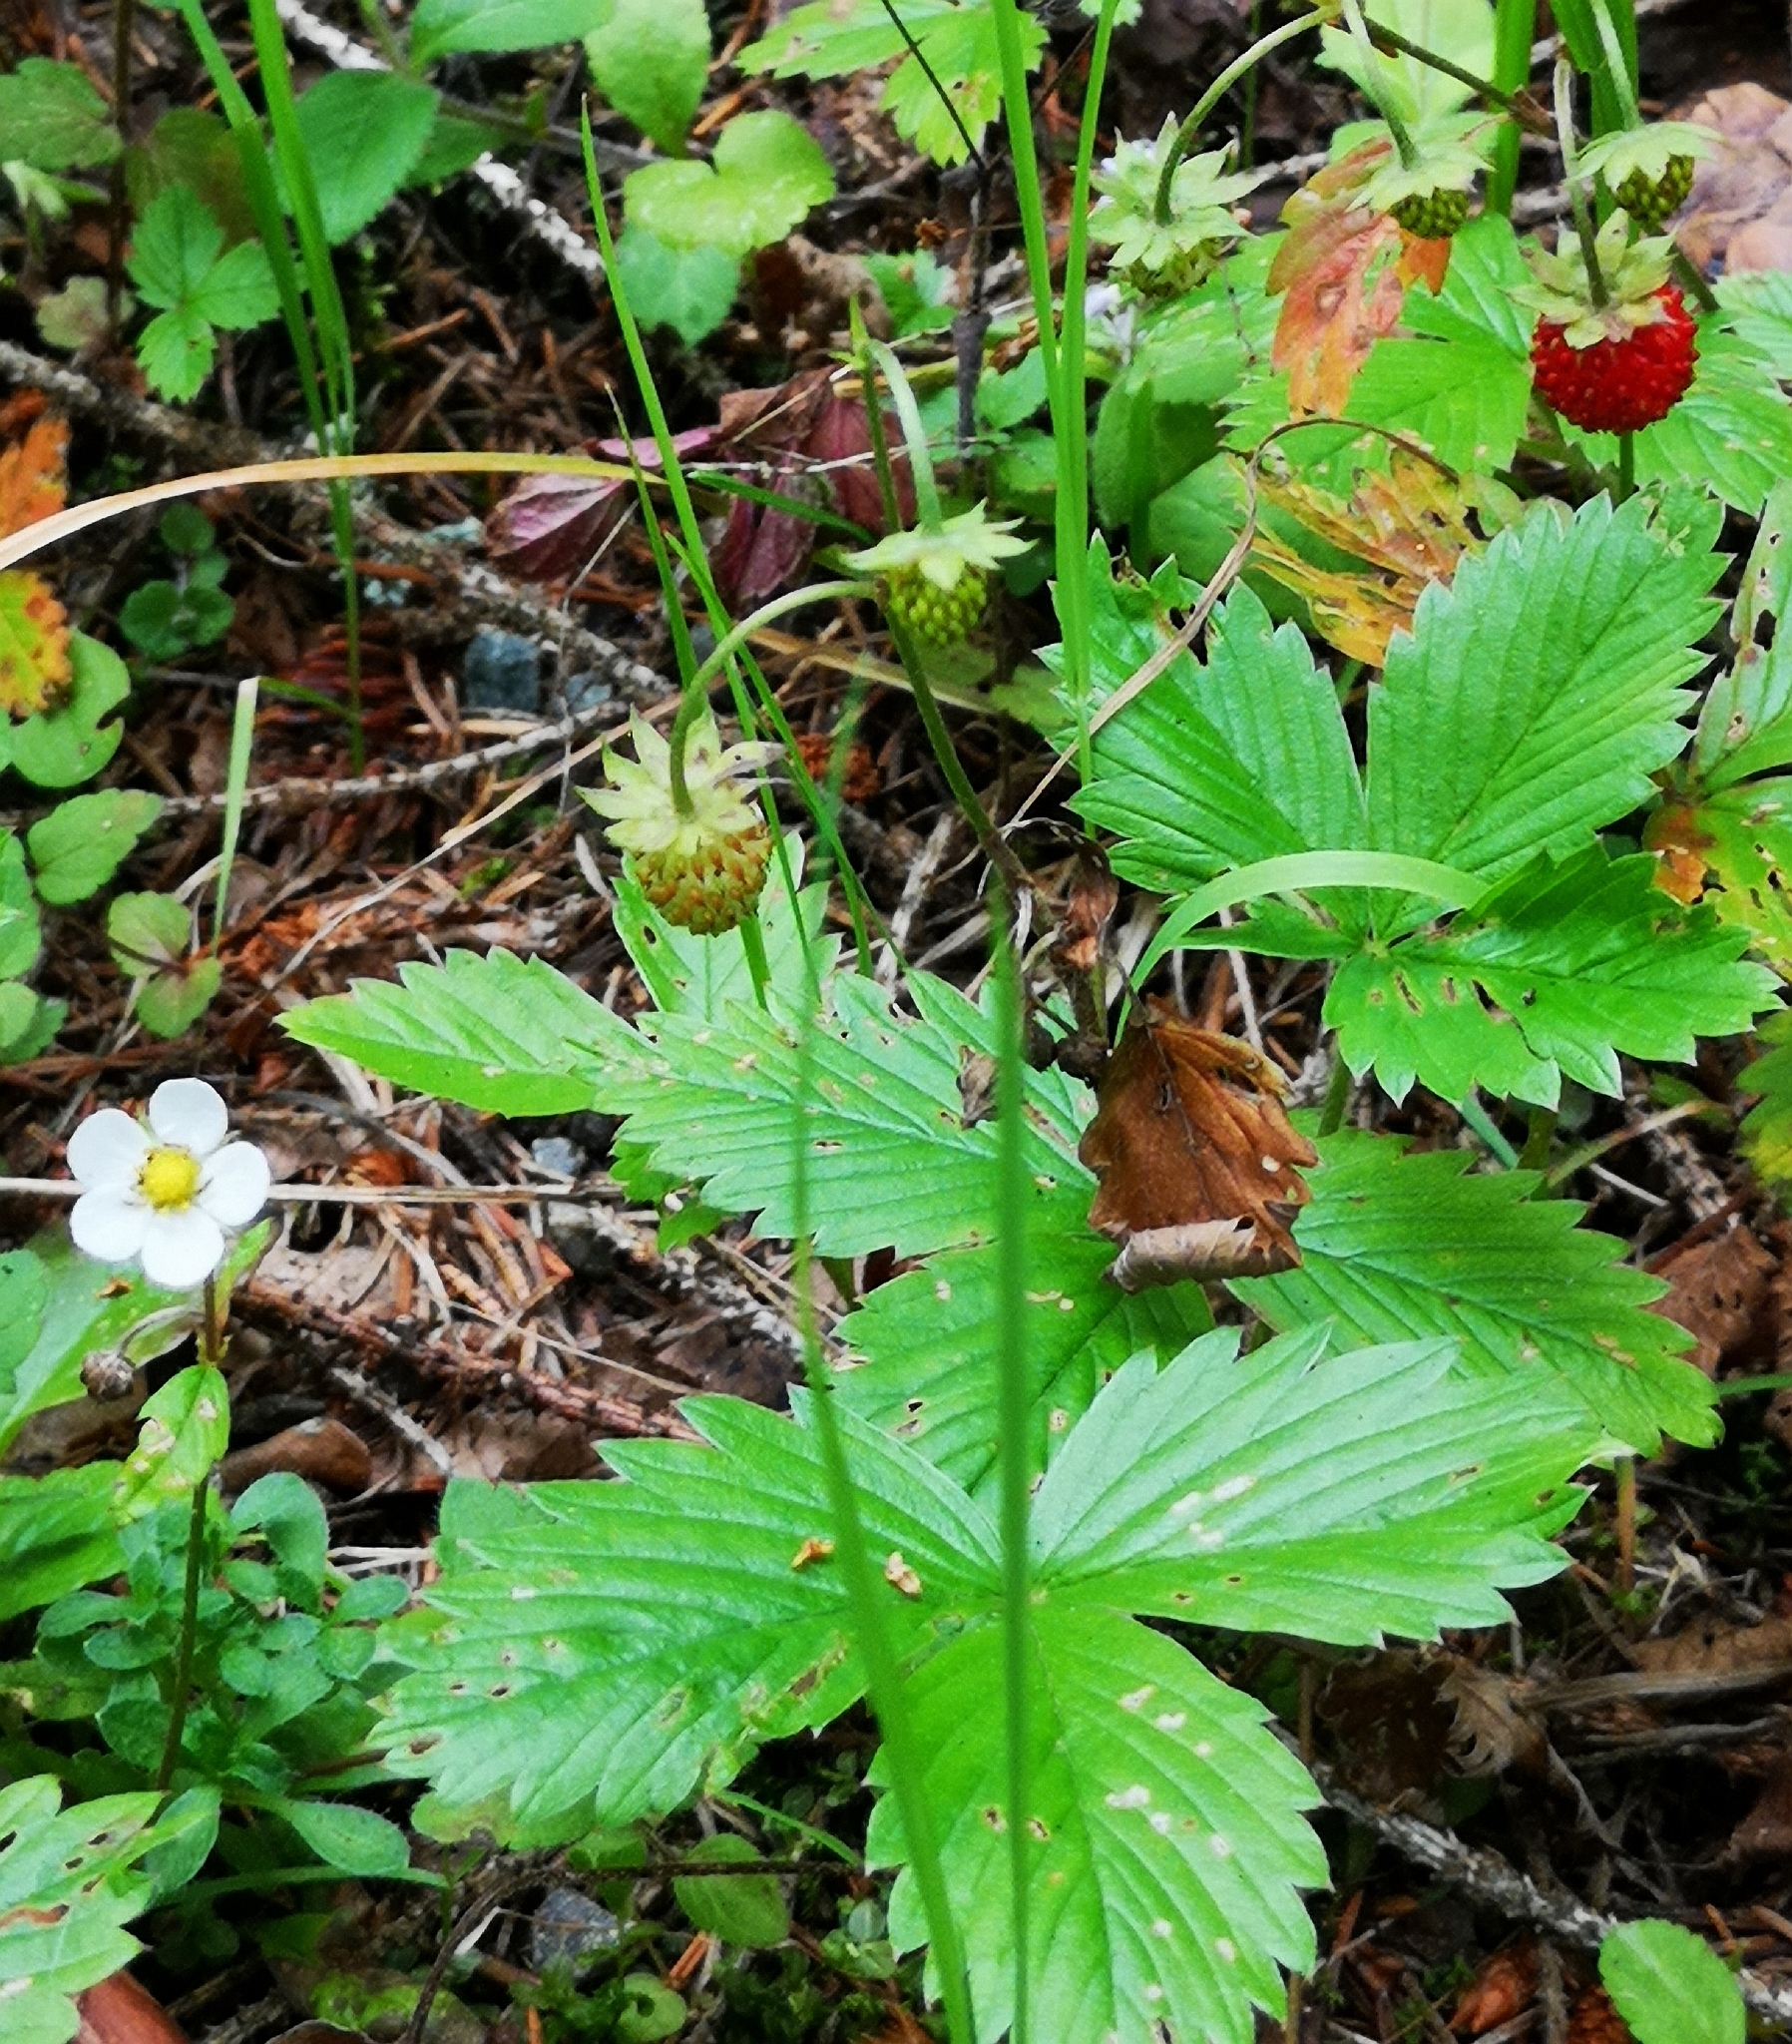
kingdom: Plantae
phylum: Tracheophyta
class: Magnoliopsida
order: Rosales
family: Rosaceae
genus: Fragaria
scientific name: Fragaria vesca
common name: Wild strawberry
